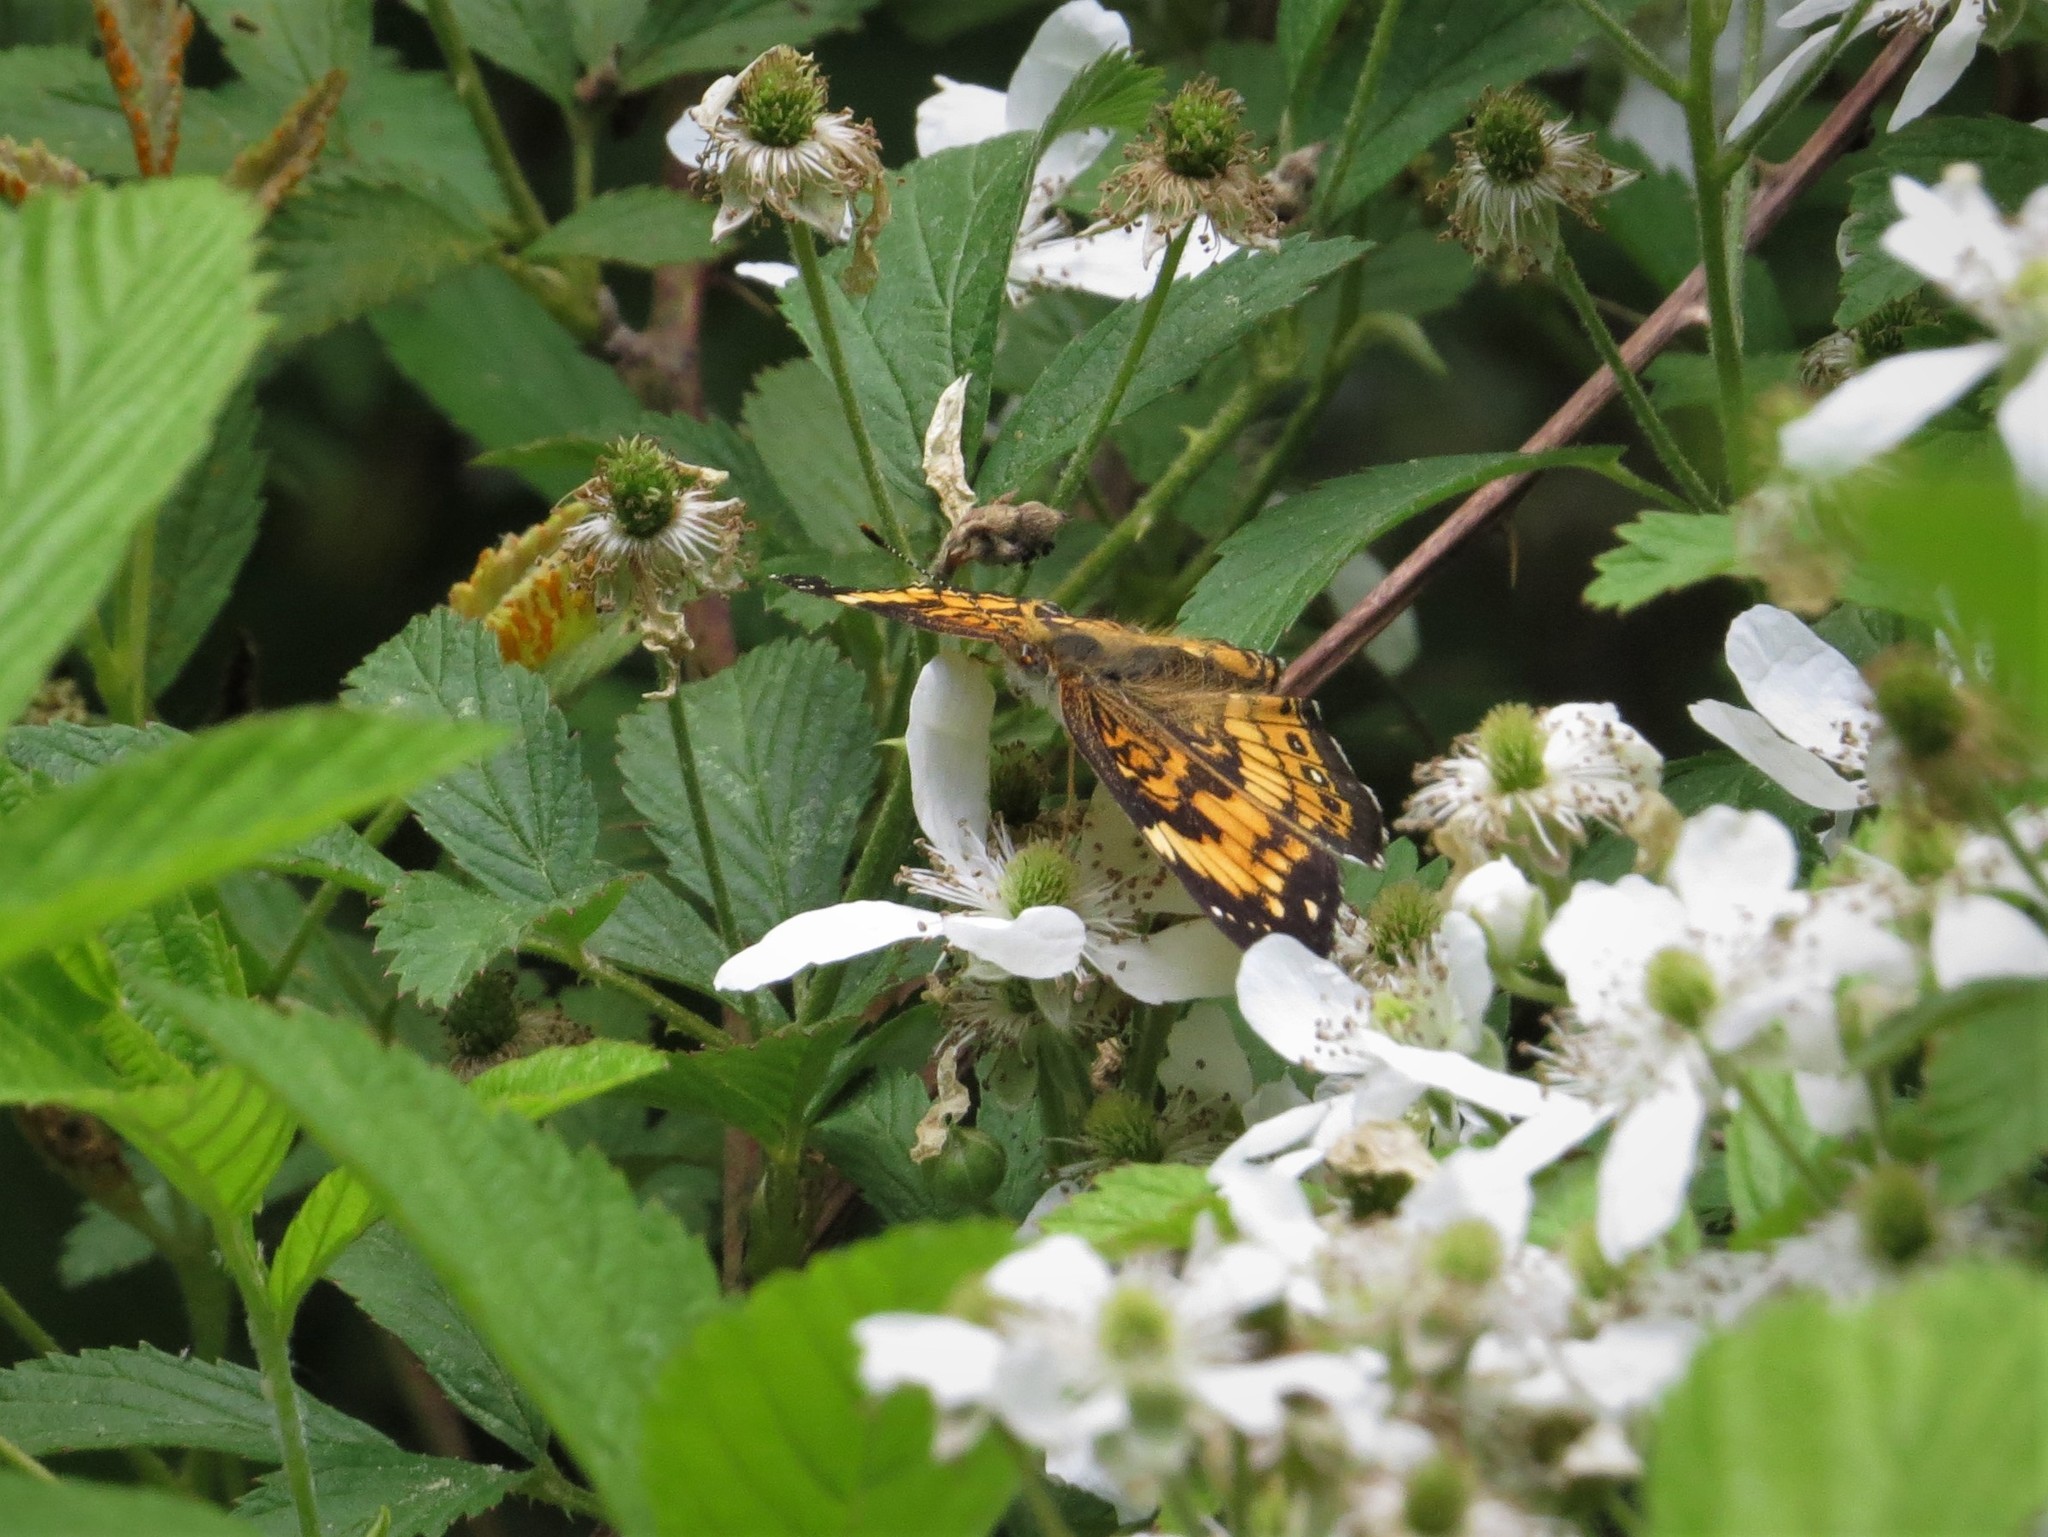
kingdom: Animalia
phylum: Arthropoda
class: Insecta
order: Lepidoptera
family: Nymphalidae
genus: Chlosyne
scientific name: Chlosyne nycteis
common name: Silvery checkerspot
